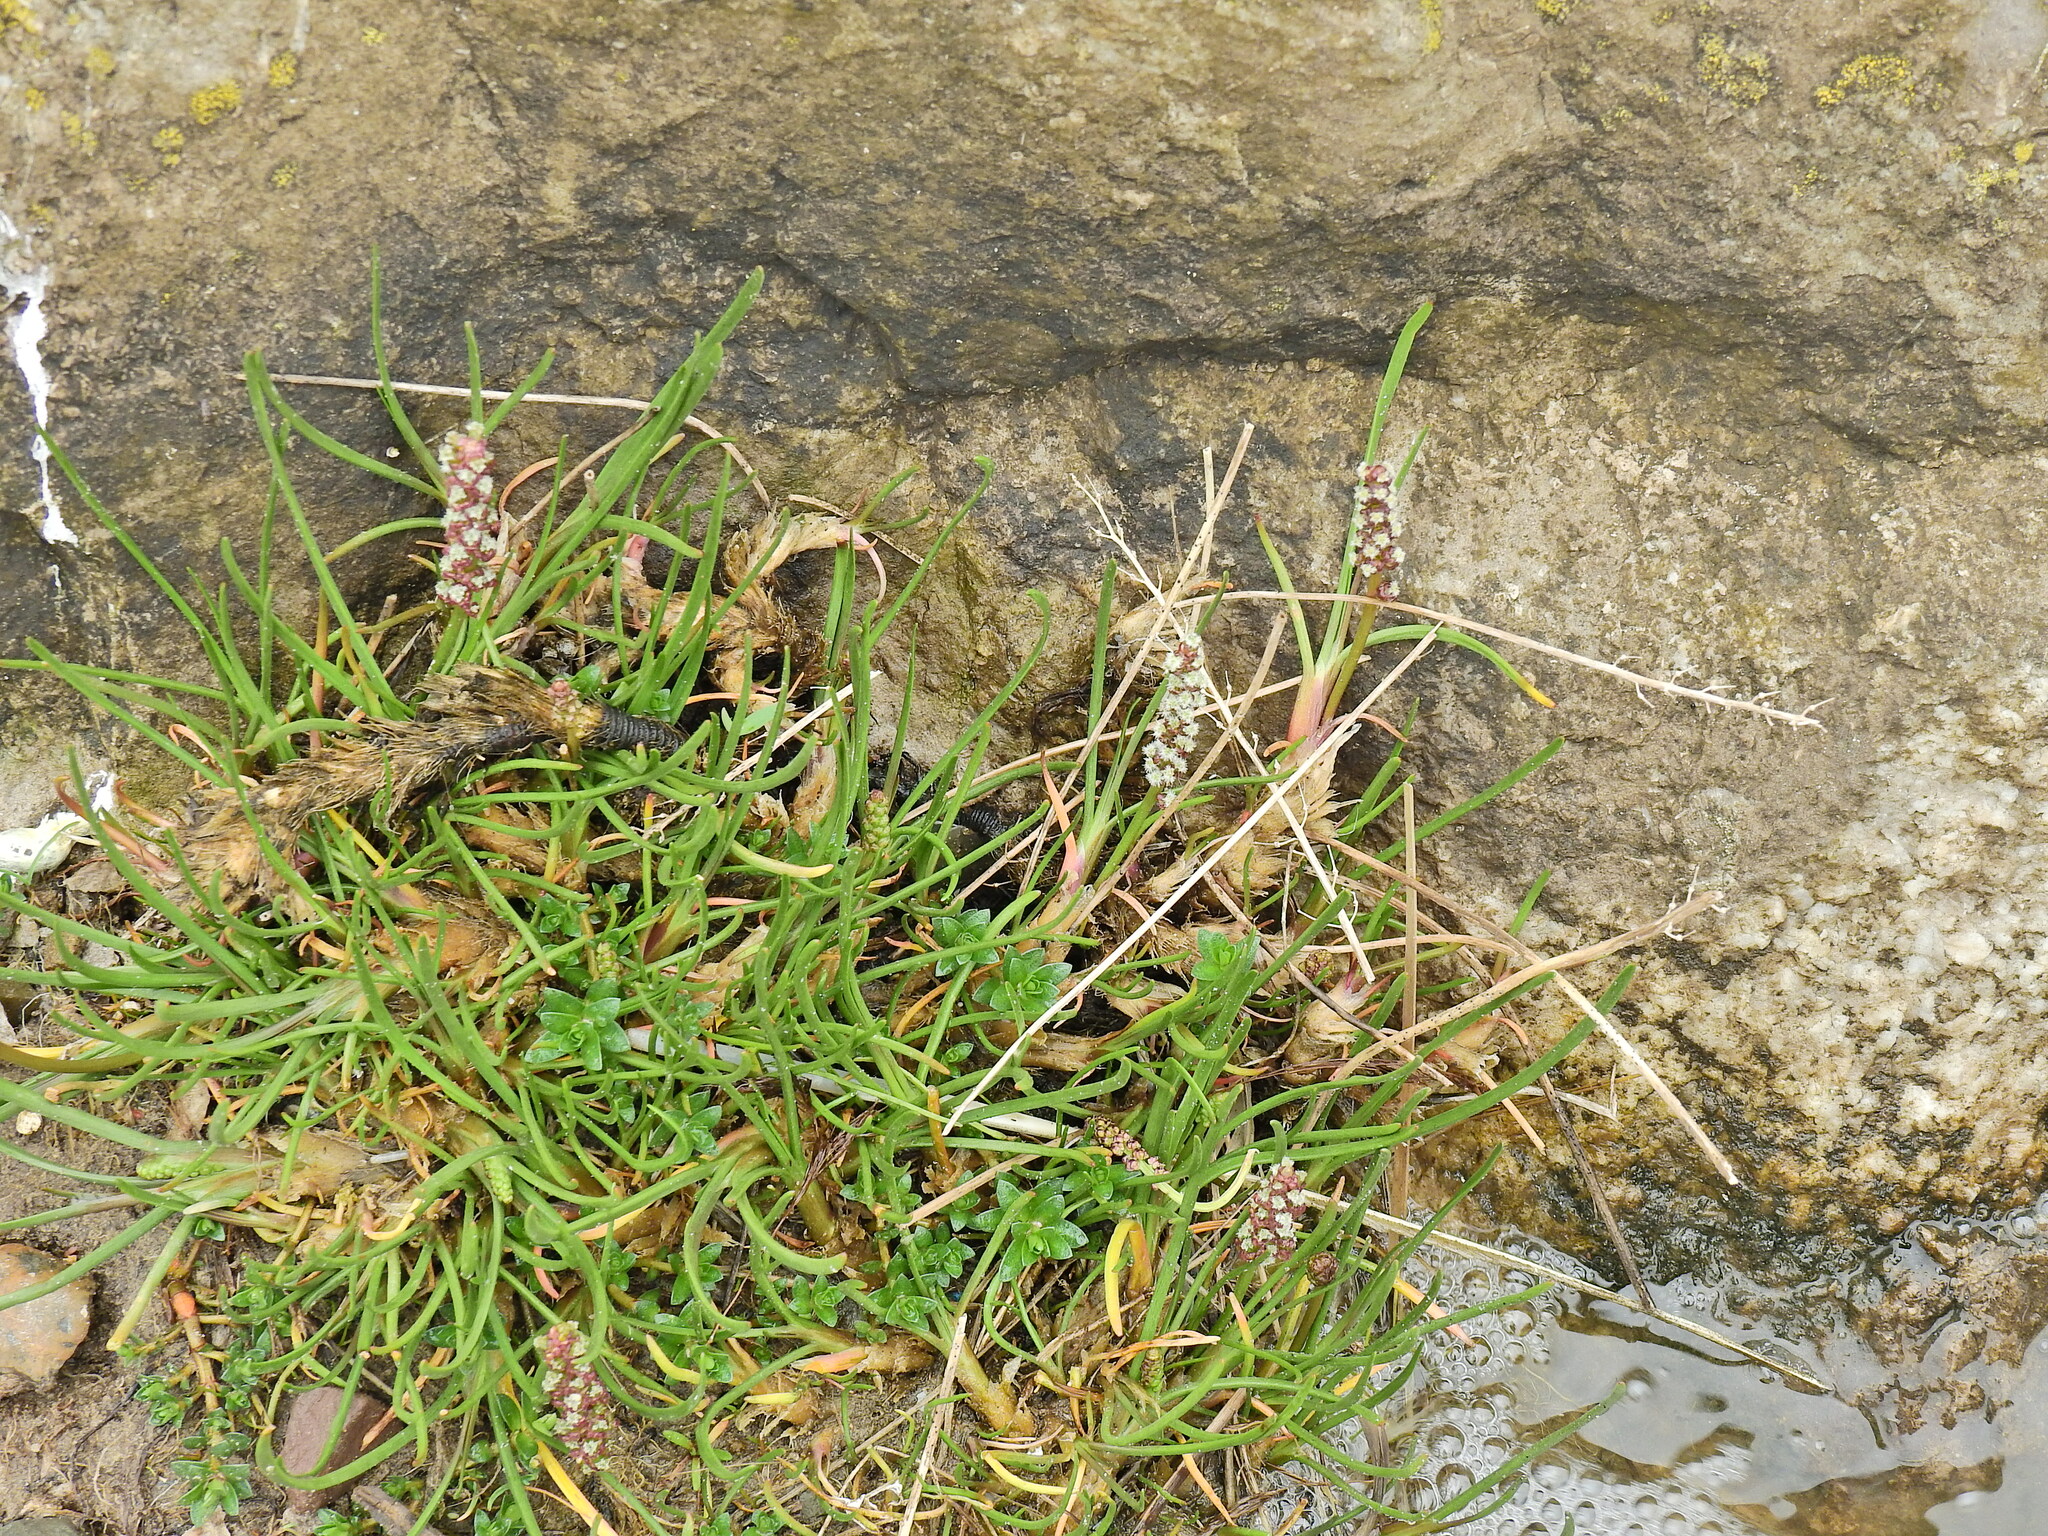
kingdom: Plantae
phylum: Tracheophyta
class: Liliopsida
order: Alismatales
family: Juncaginaceae
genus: Triglochin
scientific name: Triglochin maritima
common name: Sea arrowgrass
